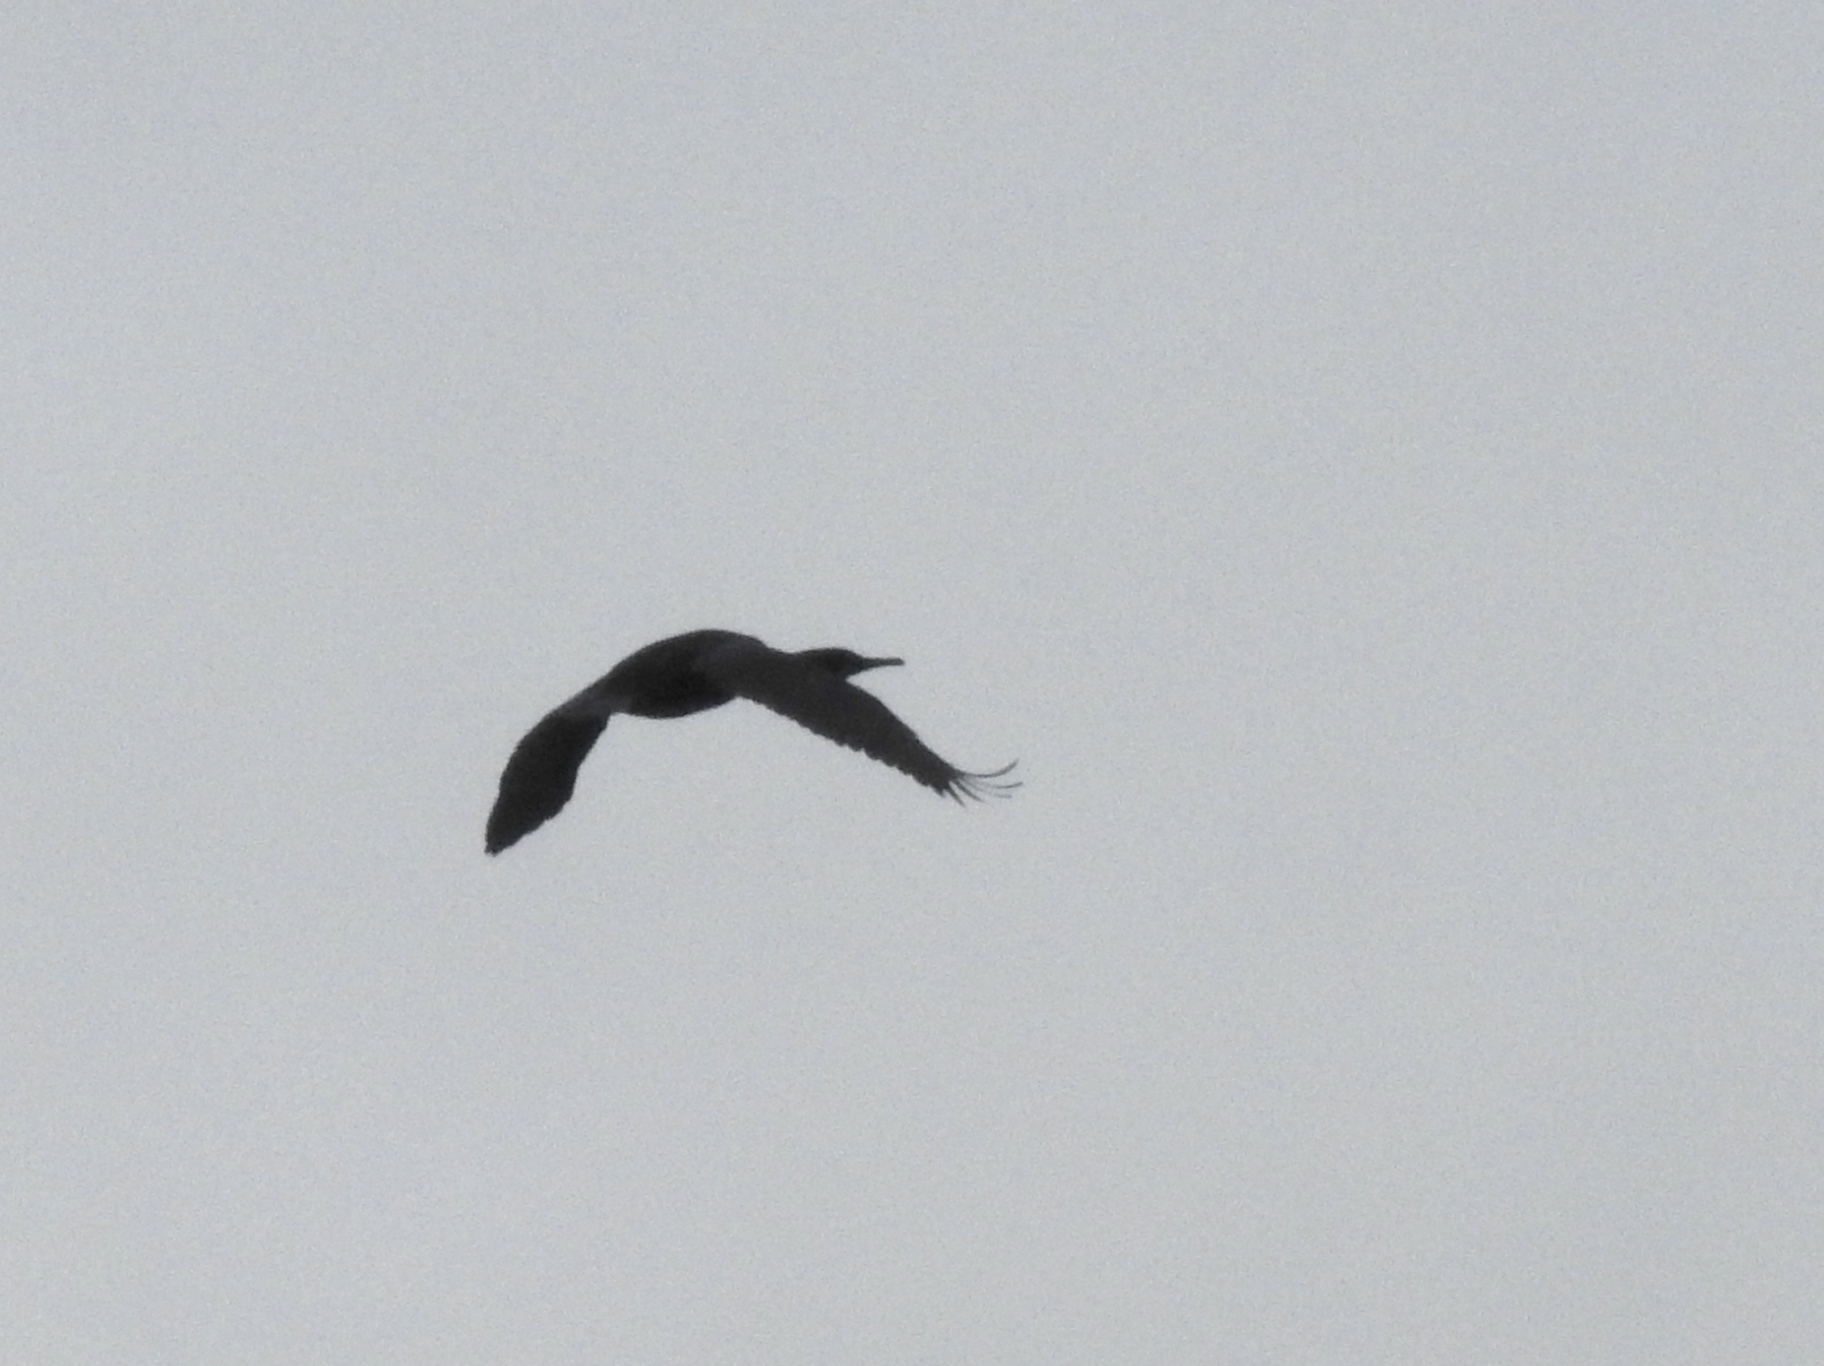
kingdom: Animalia
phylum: Chordata
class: Aves
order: Suliformes
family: Phalacrocoracidae
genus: Urile
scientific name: Urile penicillatus
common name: Brandt's cormorant
